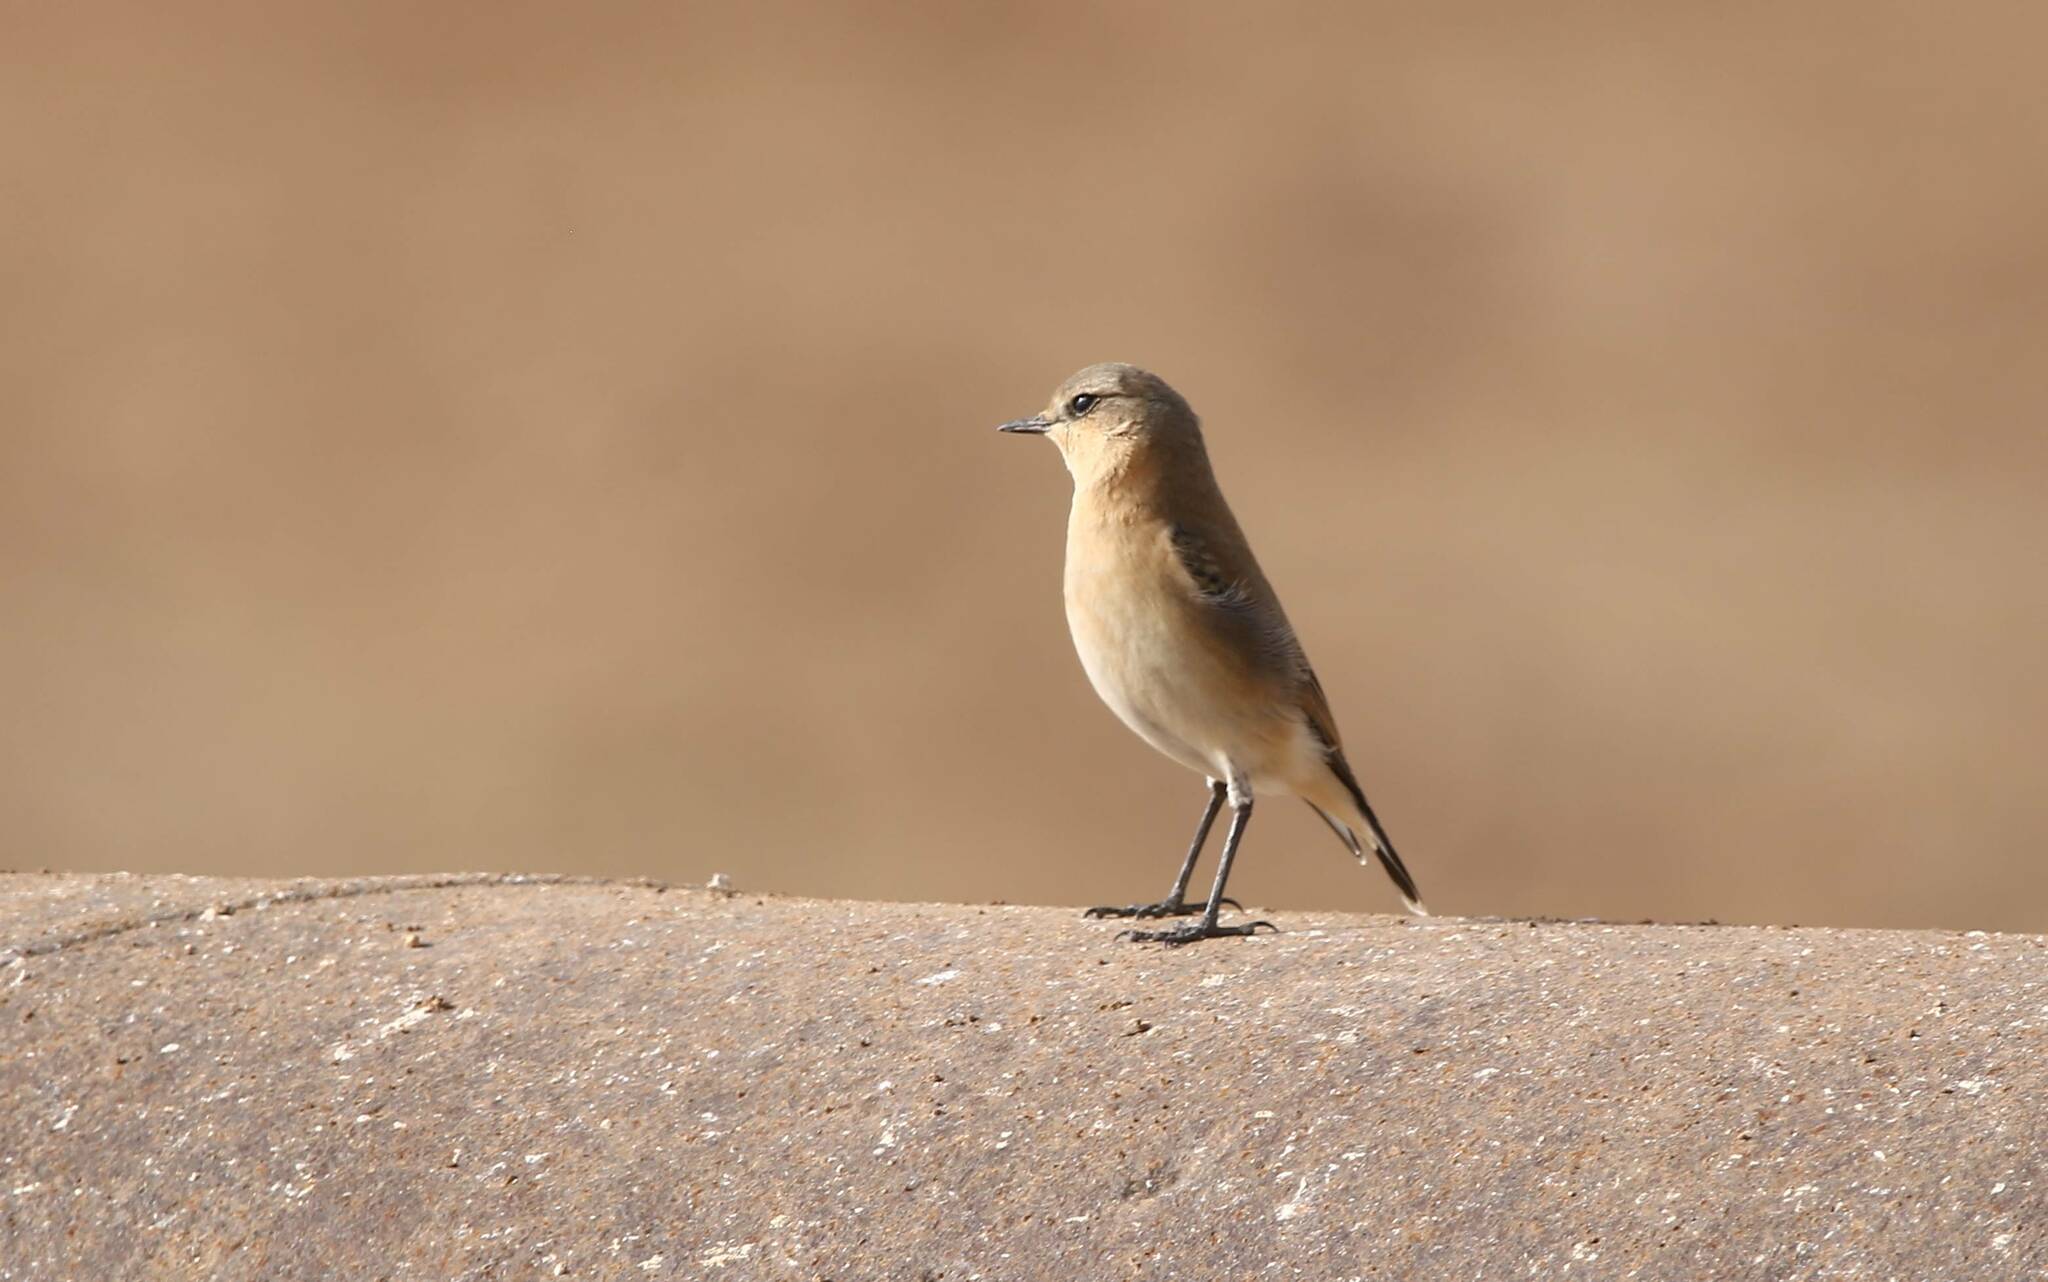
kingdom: Animalia
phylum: Chordata
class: Aves
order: Passeriformes
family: Muscicapidae
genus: Oenanthe
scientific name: Oenanthe oenanthe
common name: Northern wheatear
